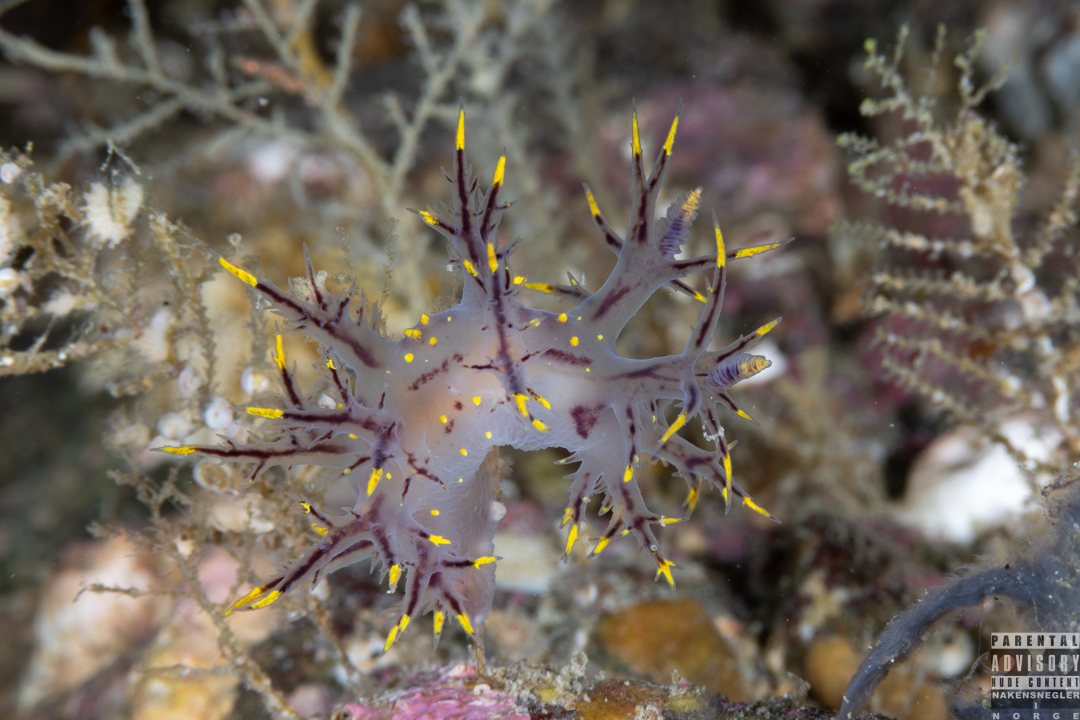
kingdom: Animalia
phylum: Mollusca
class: Gastropoda
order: Nudibranchia
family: Dendronotidae
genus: Dendronotus
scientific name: Dendronotus arcticus
